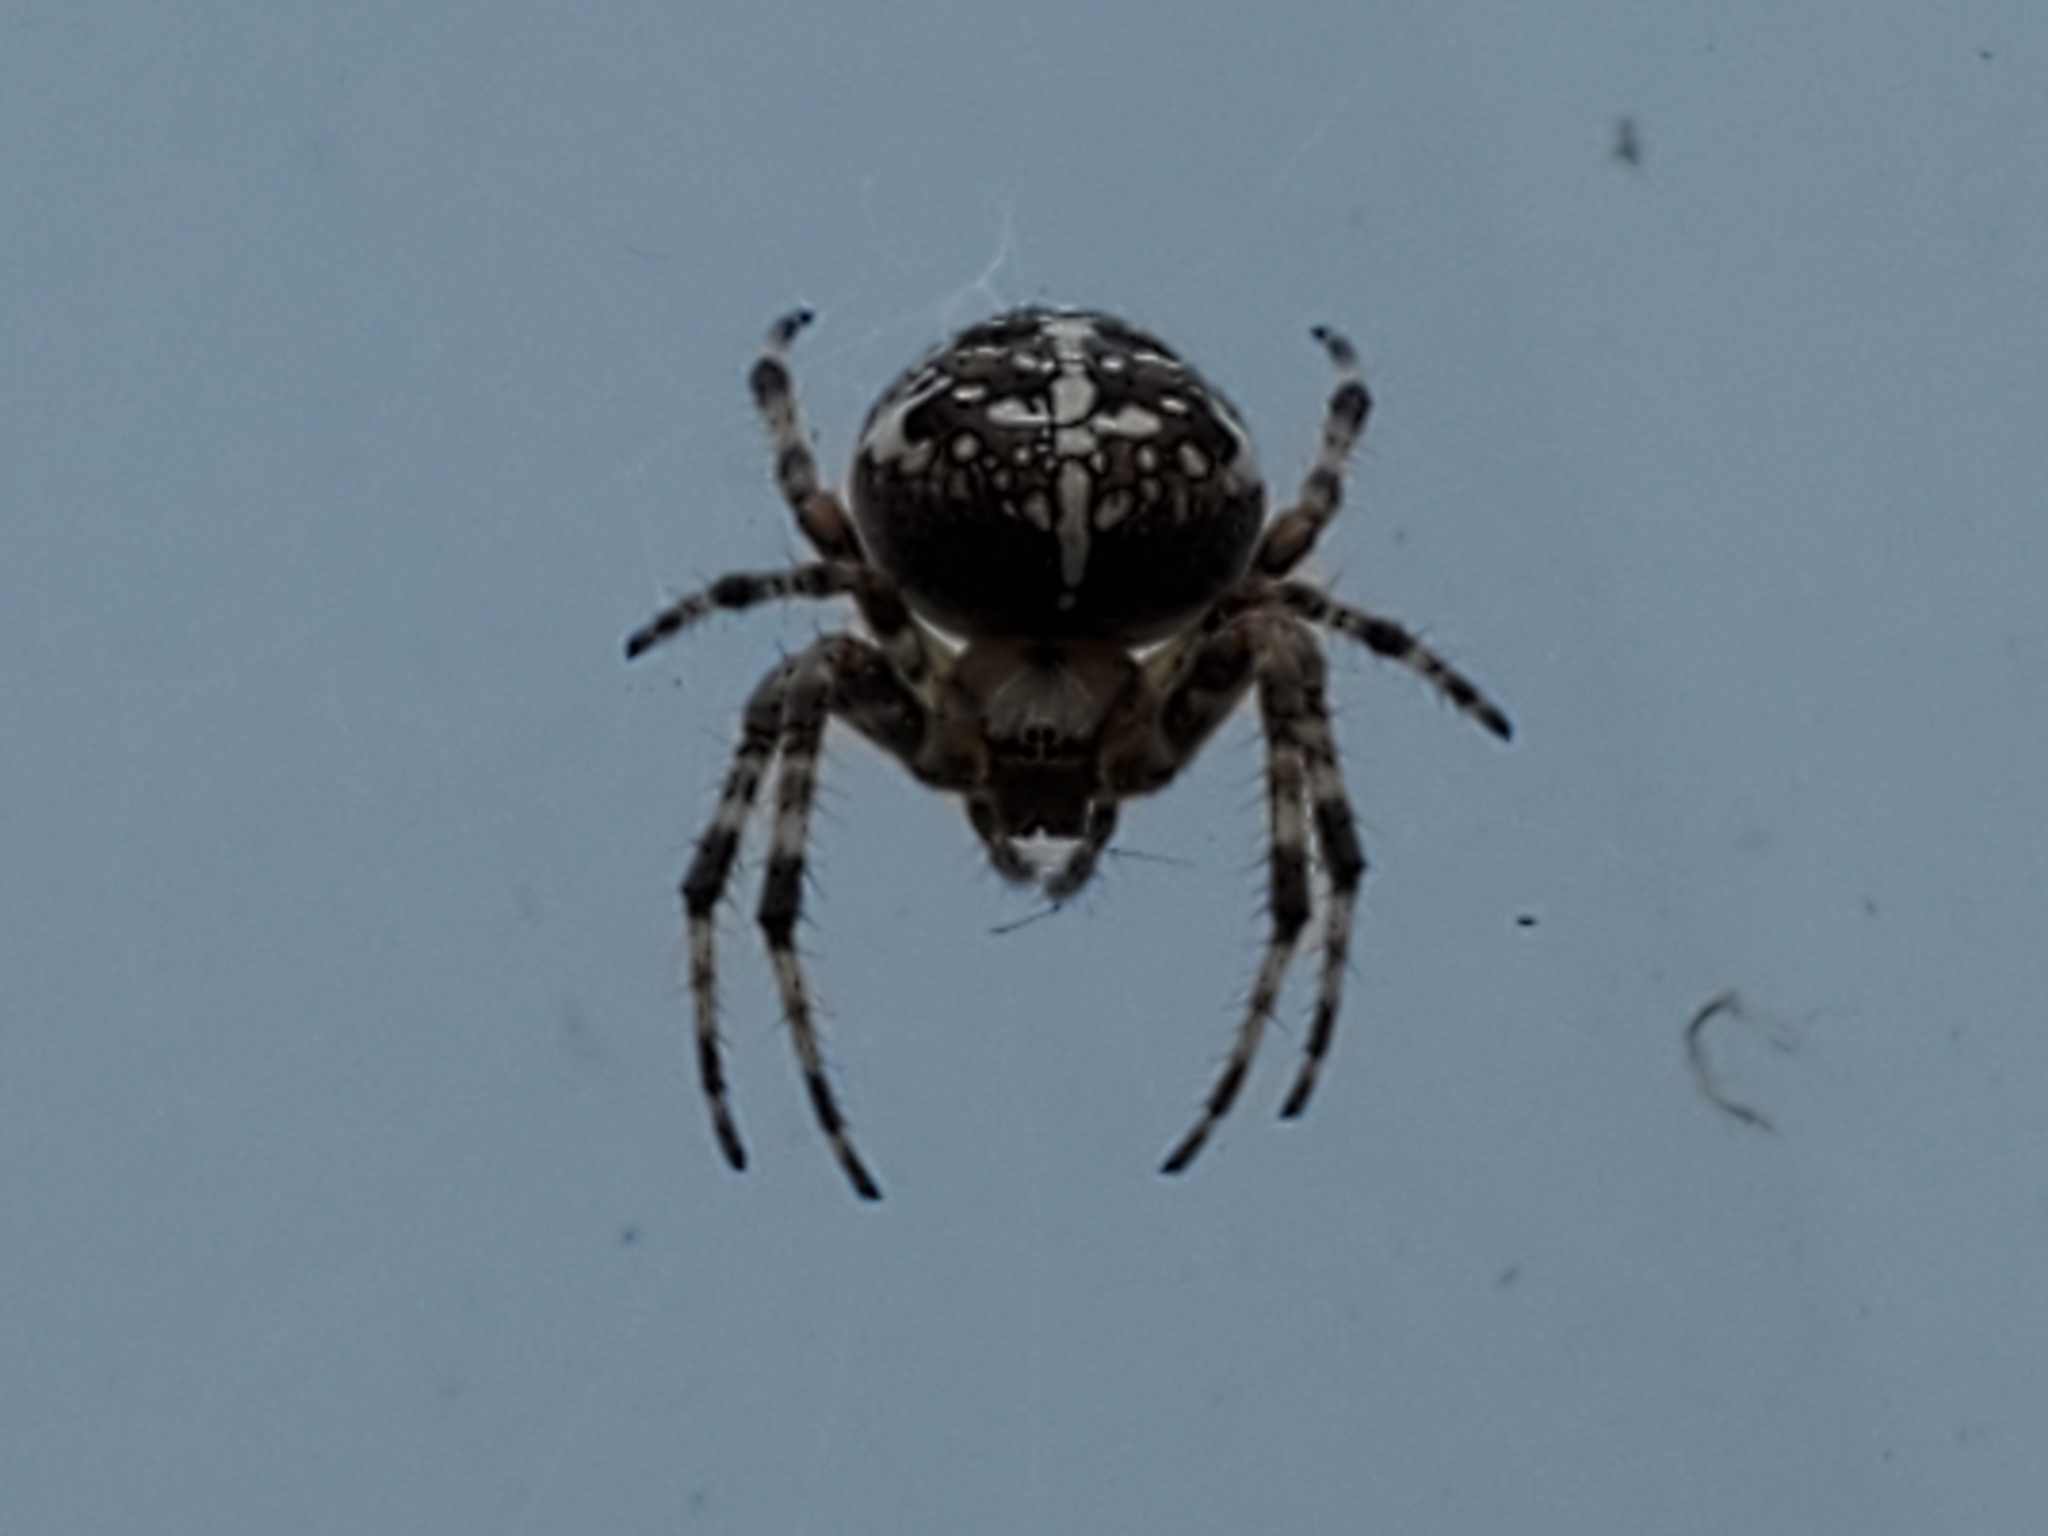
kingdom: Animalia
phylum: Arthropoda
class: Arachnida
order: Araneae
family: Araneidae
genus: Araneus
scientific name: Araneus diadematus
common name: Cross orbweaver
